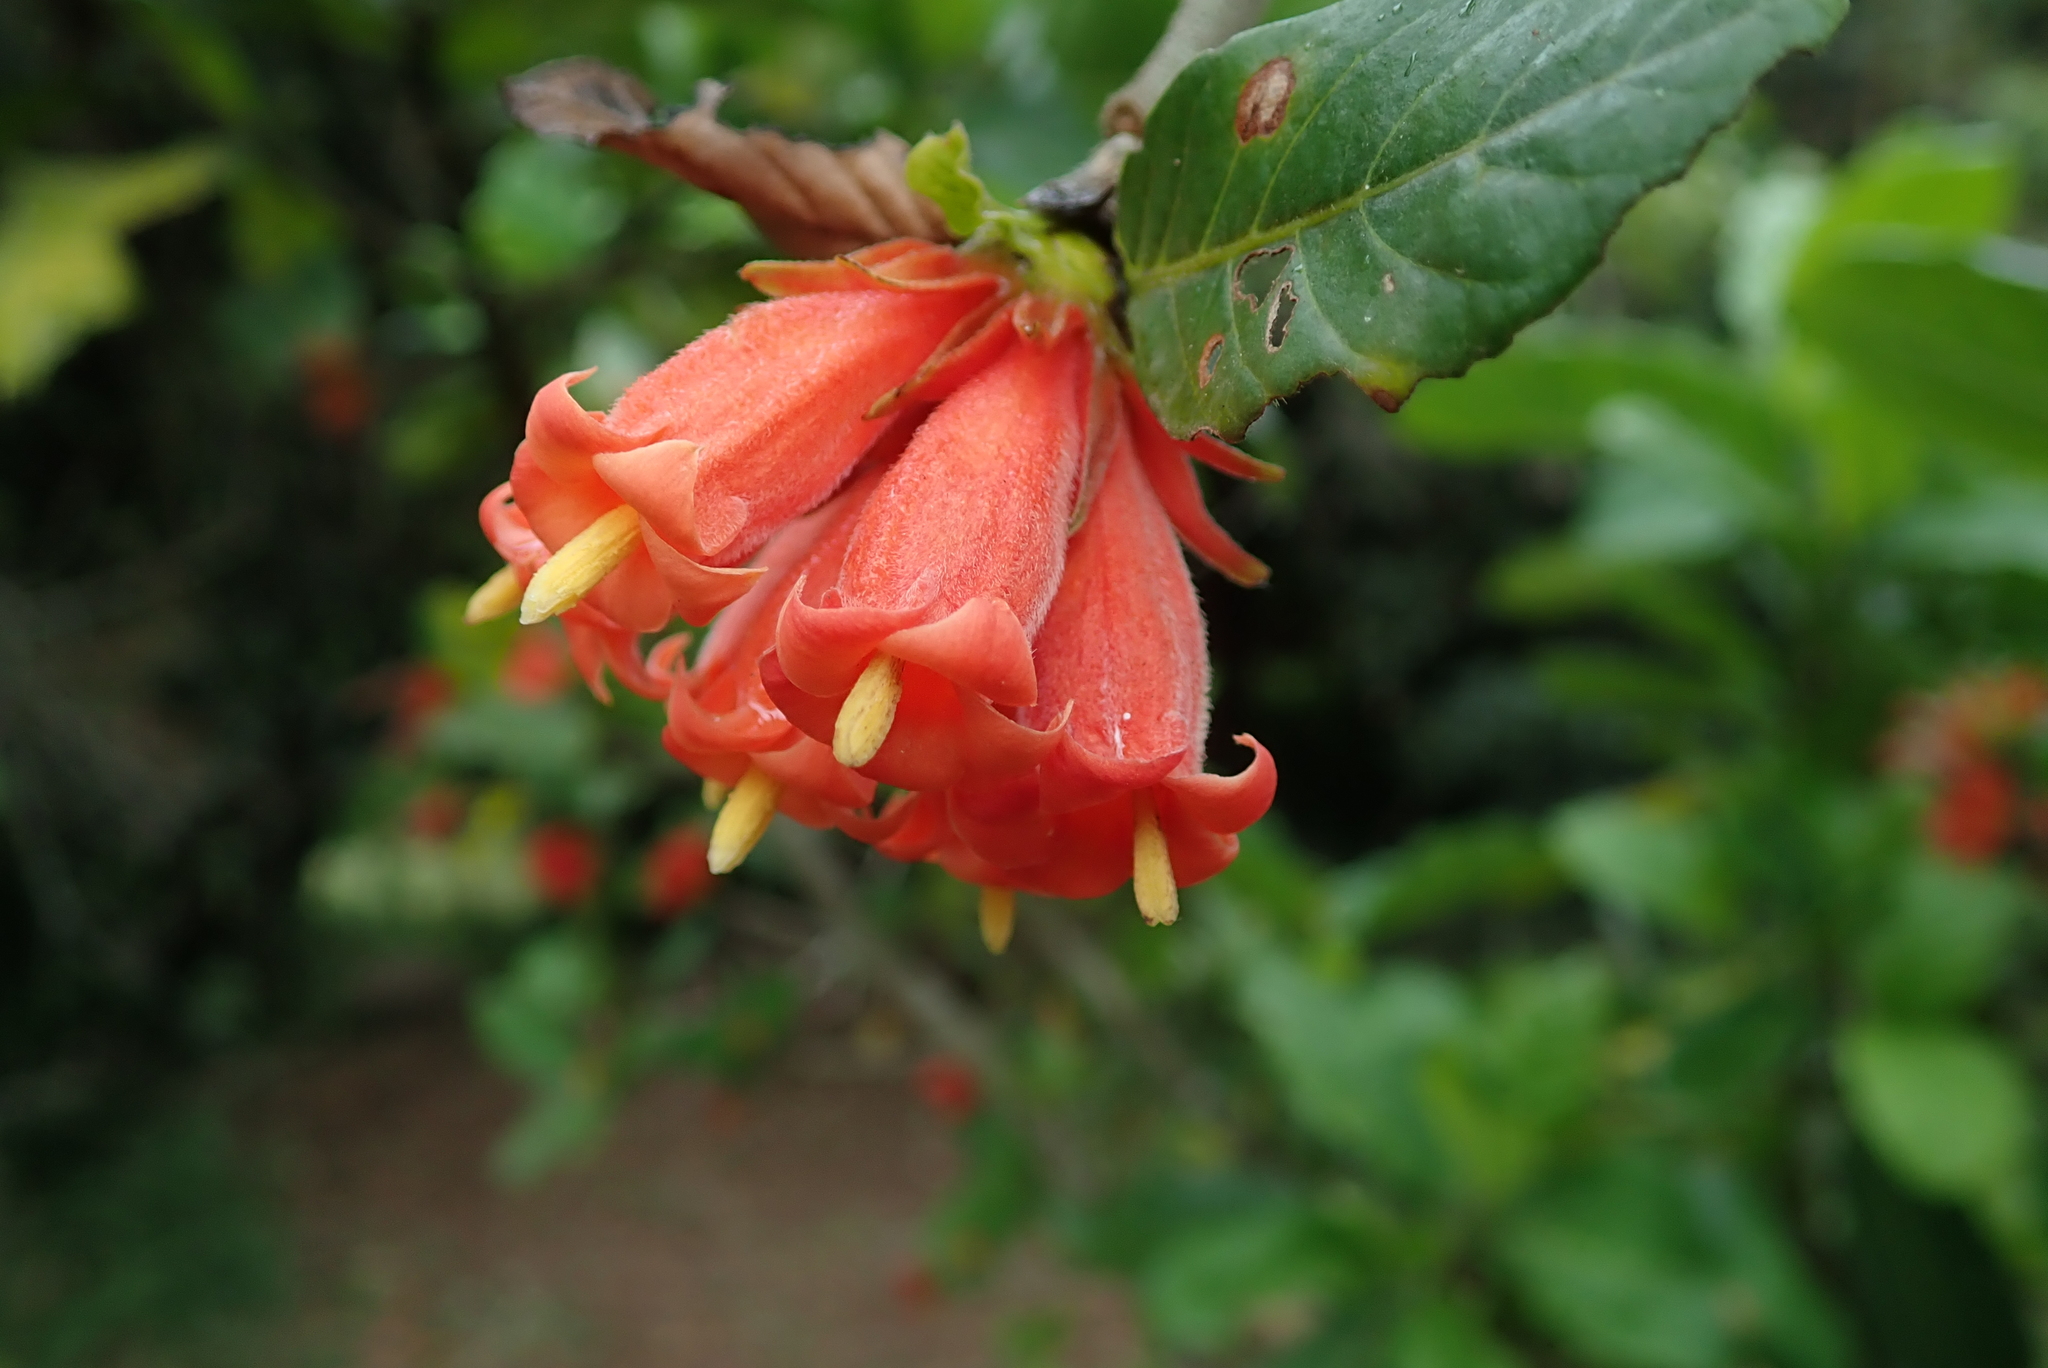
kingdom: Plantae
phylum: Tracheophyta
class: Magnoliopsida
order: Gentianales
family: Rubiaceae
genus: Burchellia
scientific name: Burchellia bubalina
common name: Wild pomegranate
